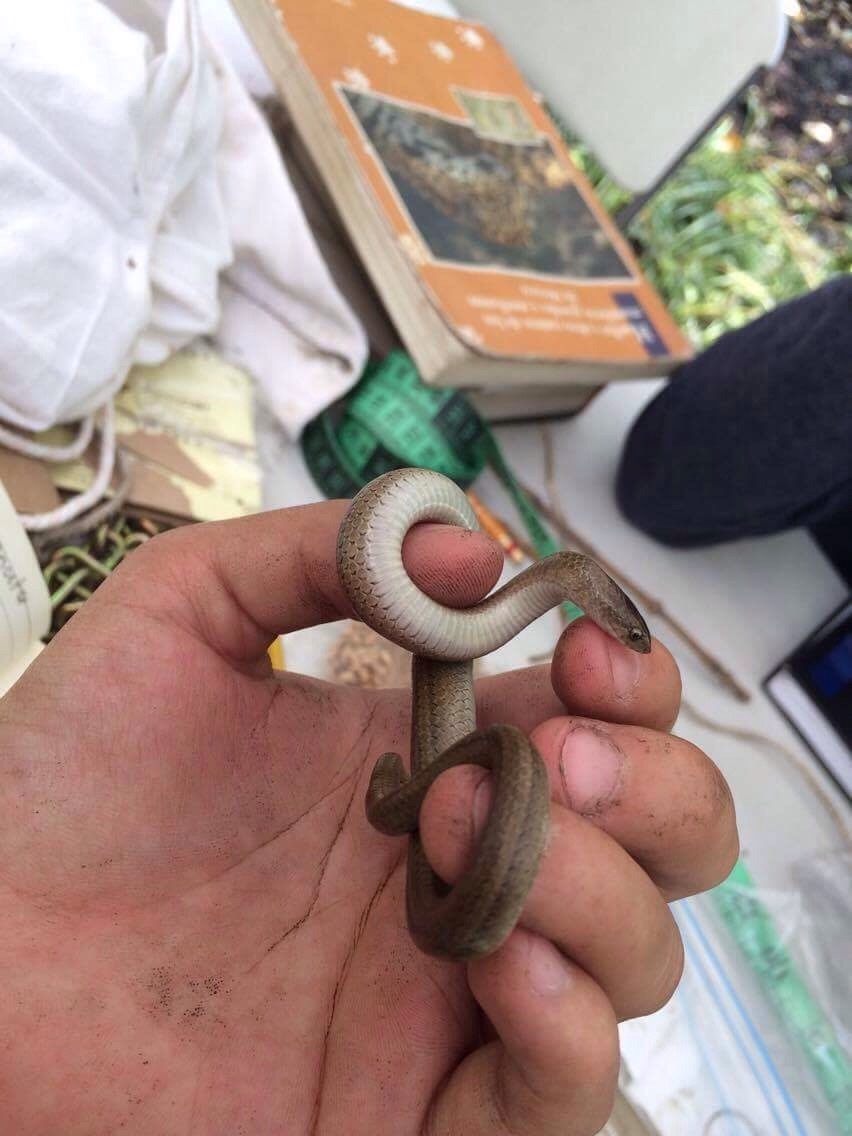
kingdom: Animalia
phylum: Chordata
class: Squamata
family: Colubridae
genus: Conopsis
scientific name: Conopsis lineata
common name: Lined tolucan earthsnake
